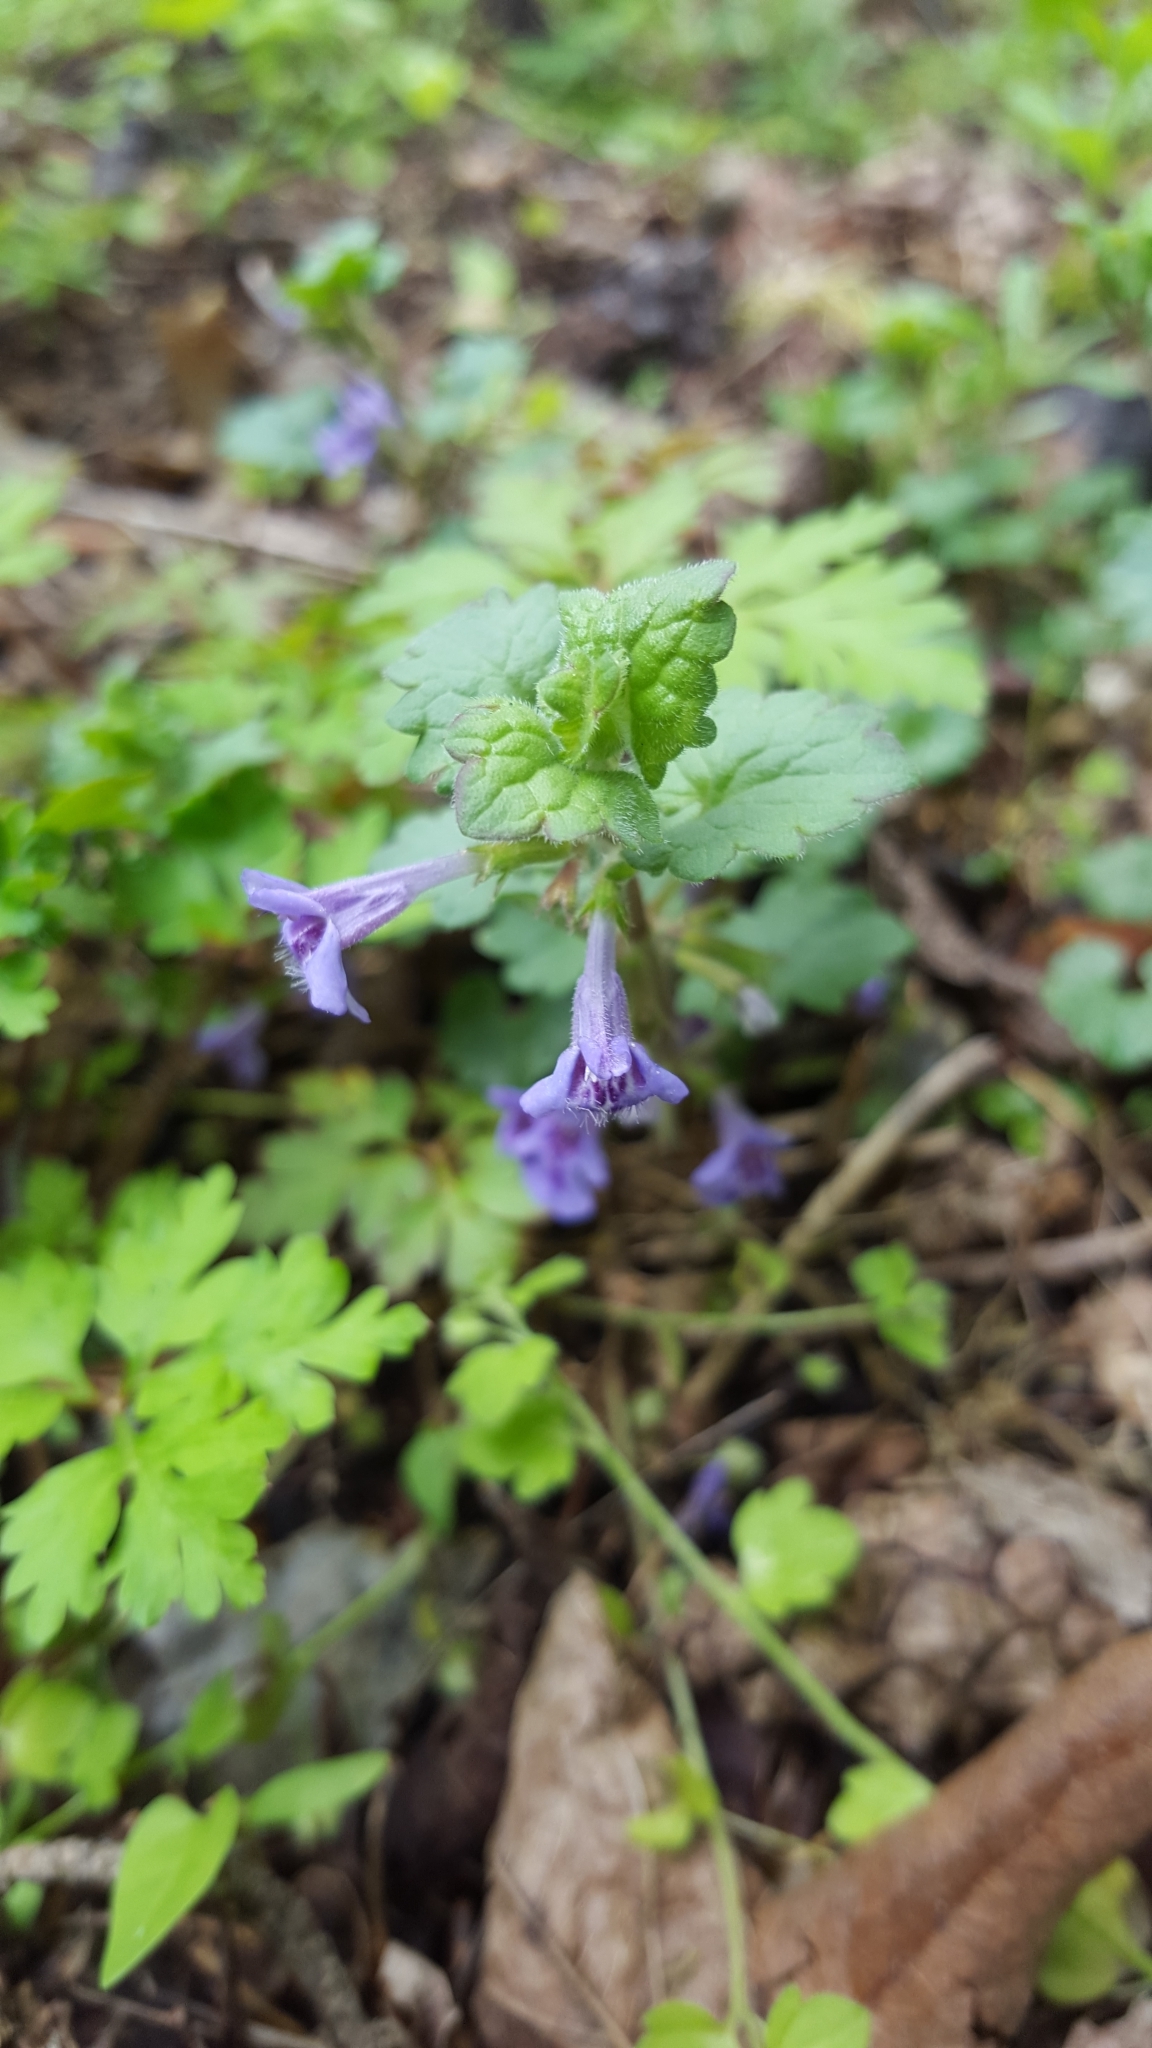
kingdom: Plantae
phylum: Tracheophyta
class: Magnoliopsida
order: Lamiales
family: Lamiaceae
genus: Glechoma
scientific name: Glechoma hederacea
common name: Ground ivy
